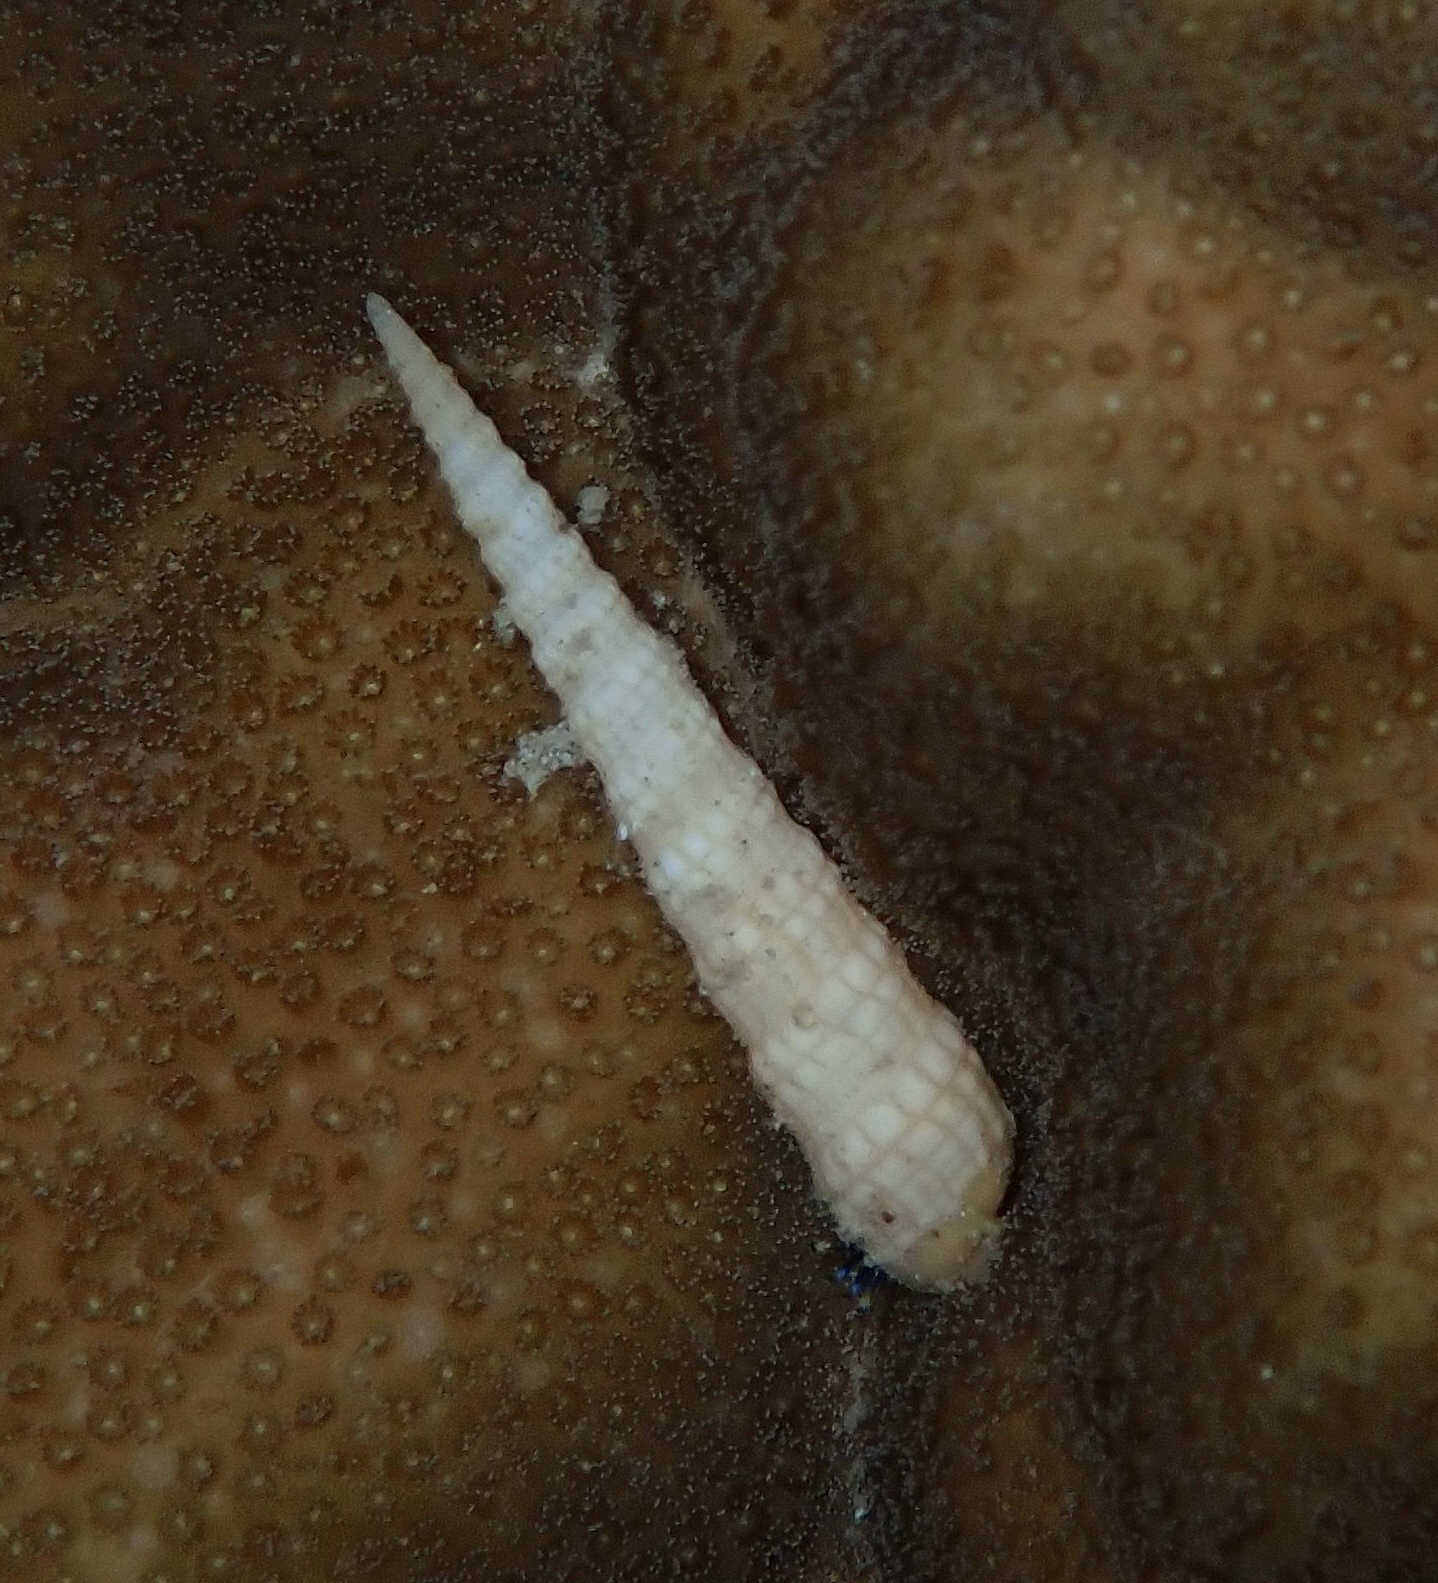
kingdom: Animalia
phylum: Mollusca
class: Gastropoda
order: Neogastropoda
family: Terebridae
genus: Terebra
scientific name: Terebra babylonia
